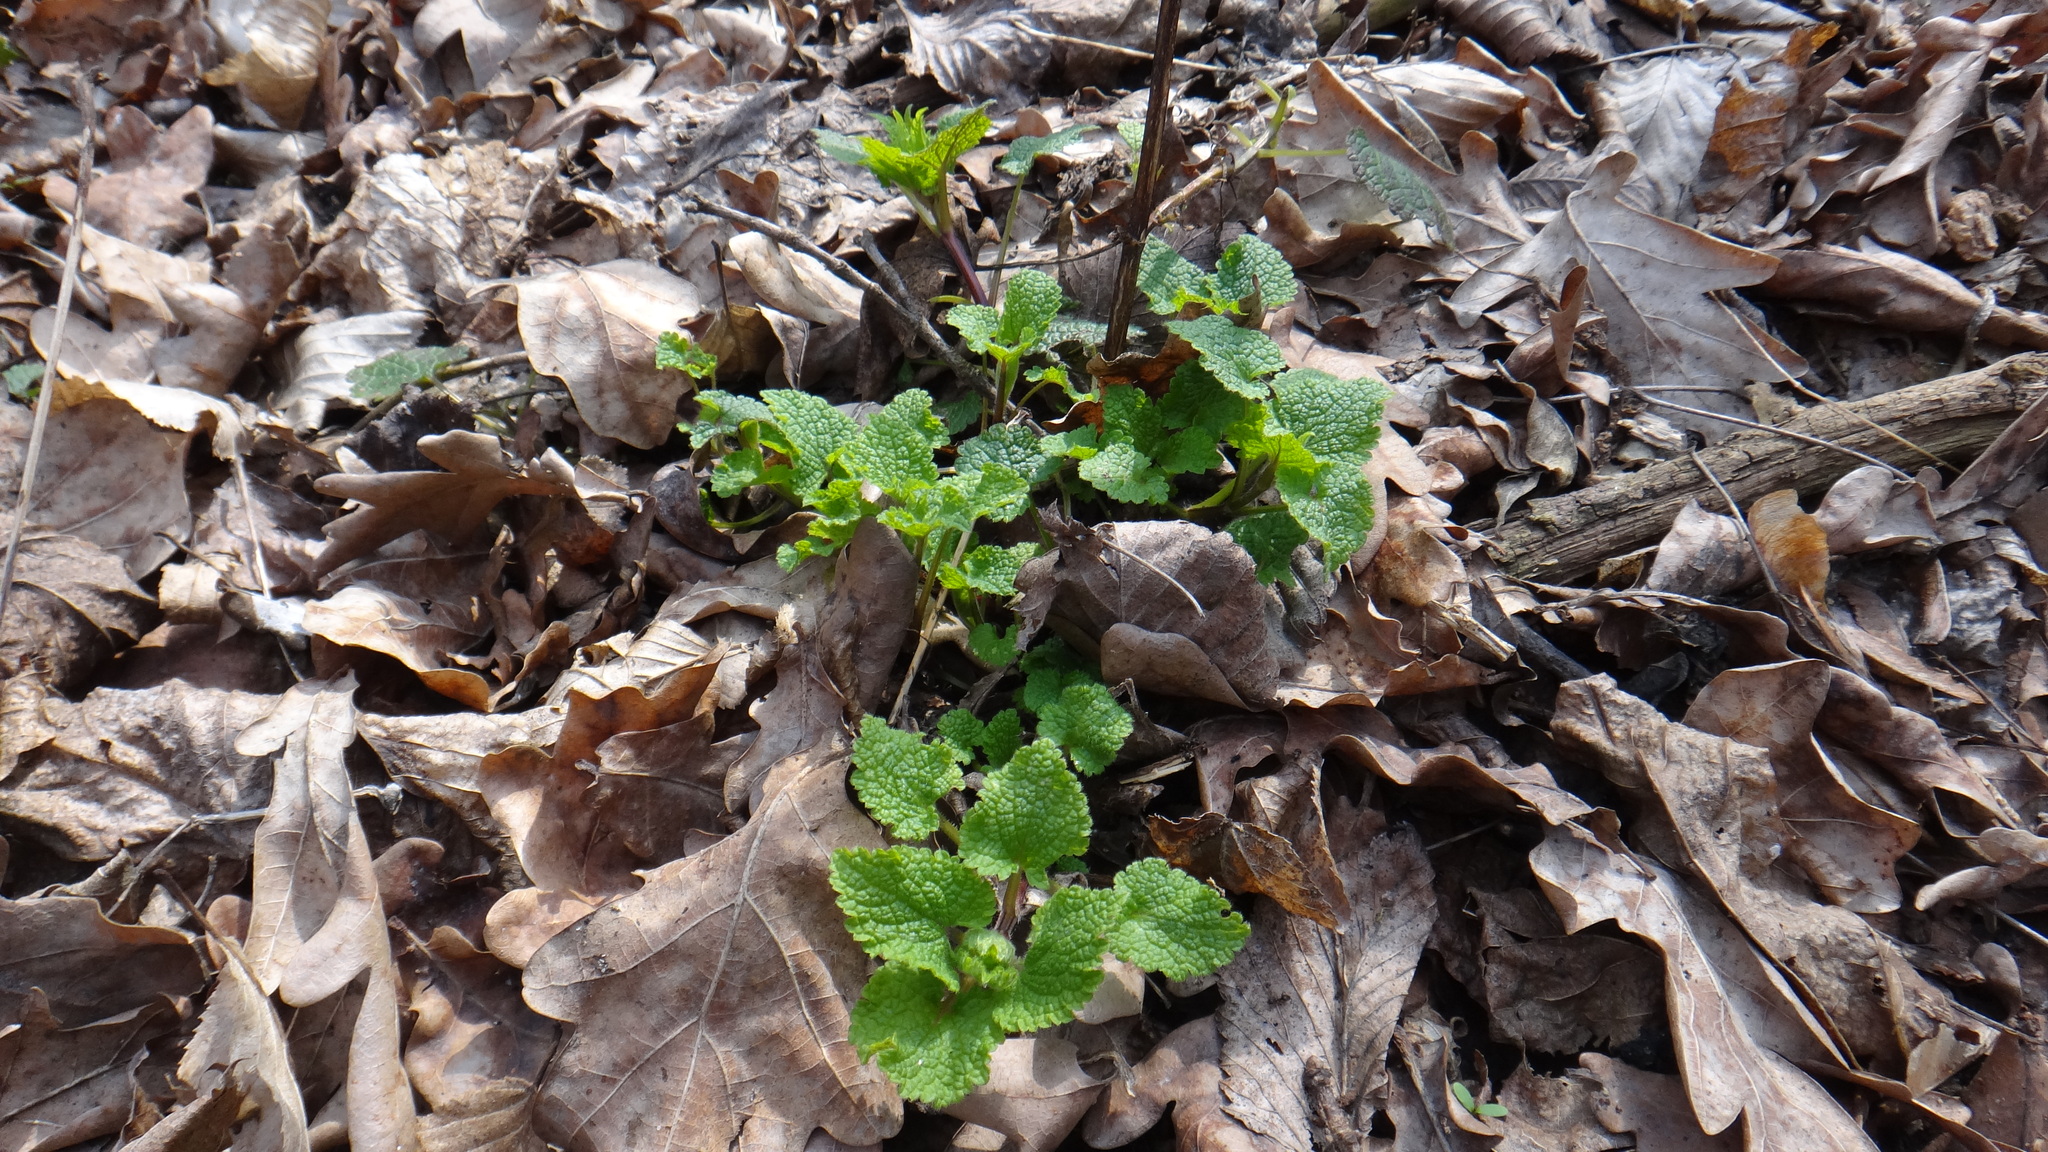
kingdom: Plantae
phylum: Tracheophyta
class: Magnoliopsida
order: Lamiales
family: Lamiaceae
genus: Ballota
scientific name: Ballota nigra
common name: Black horehound
